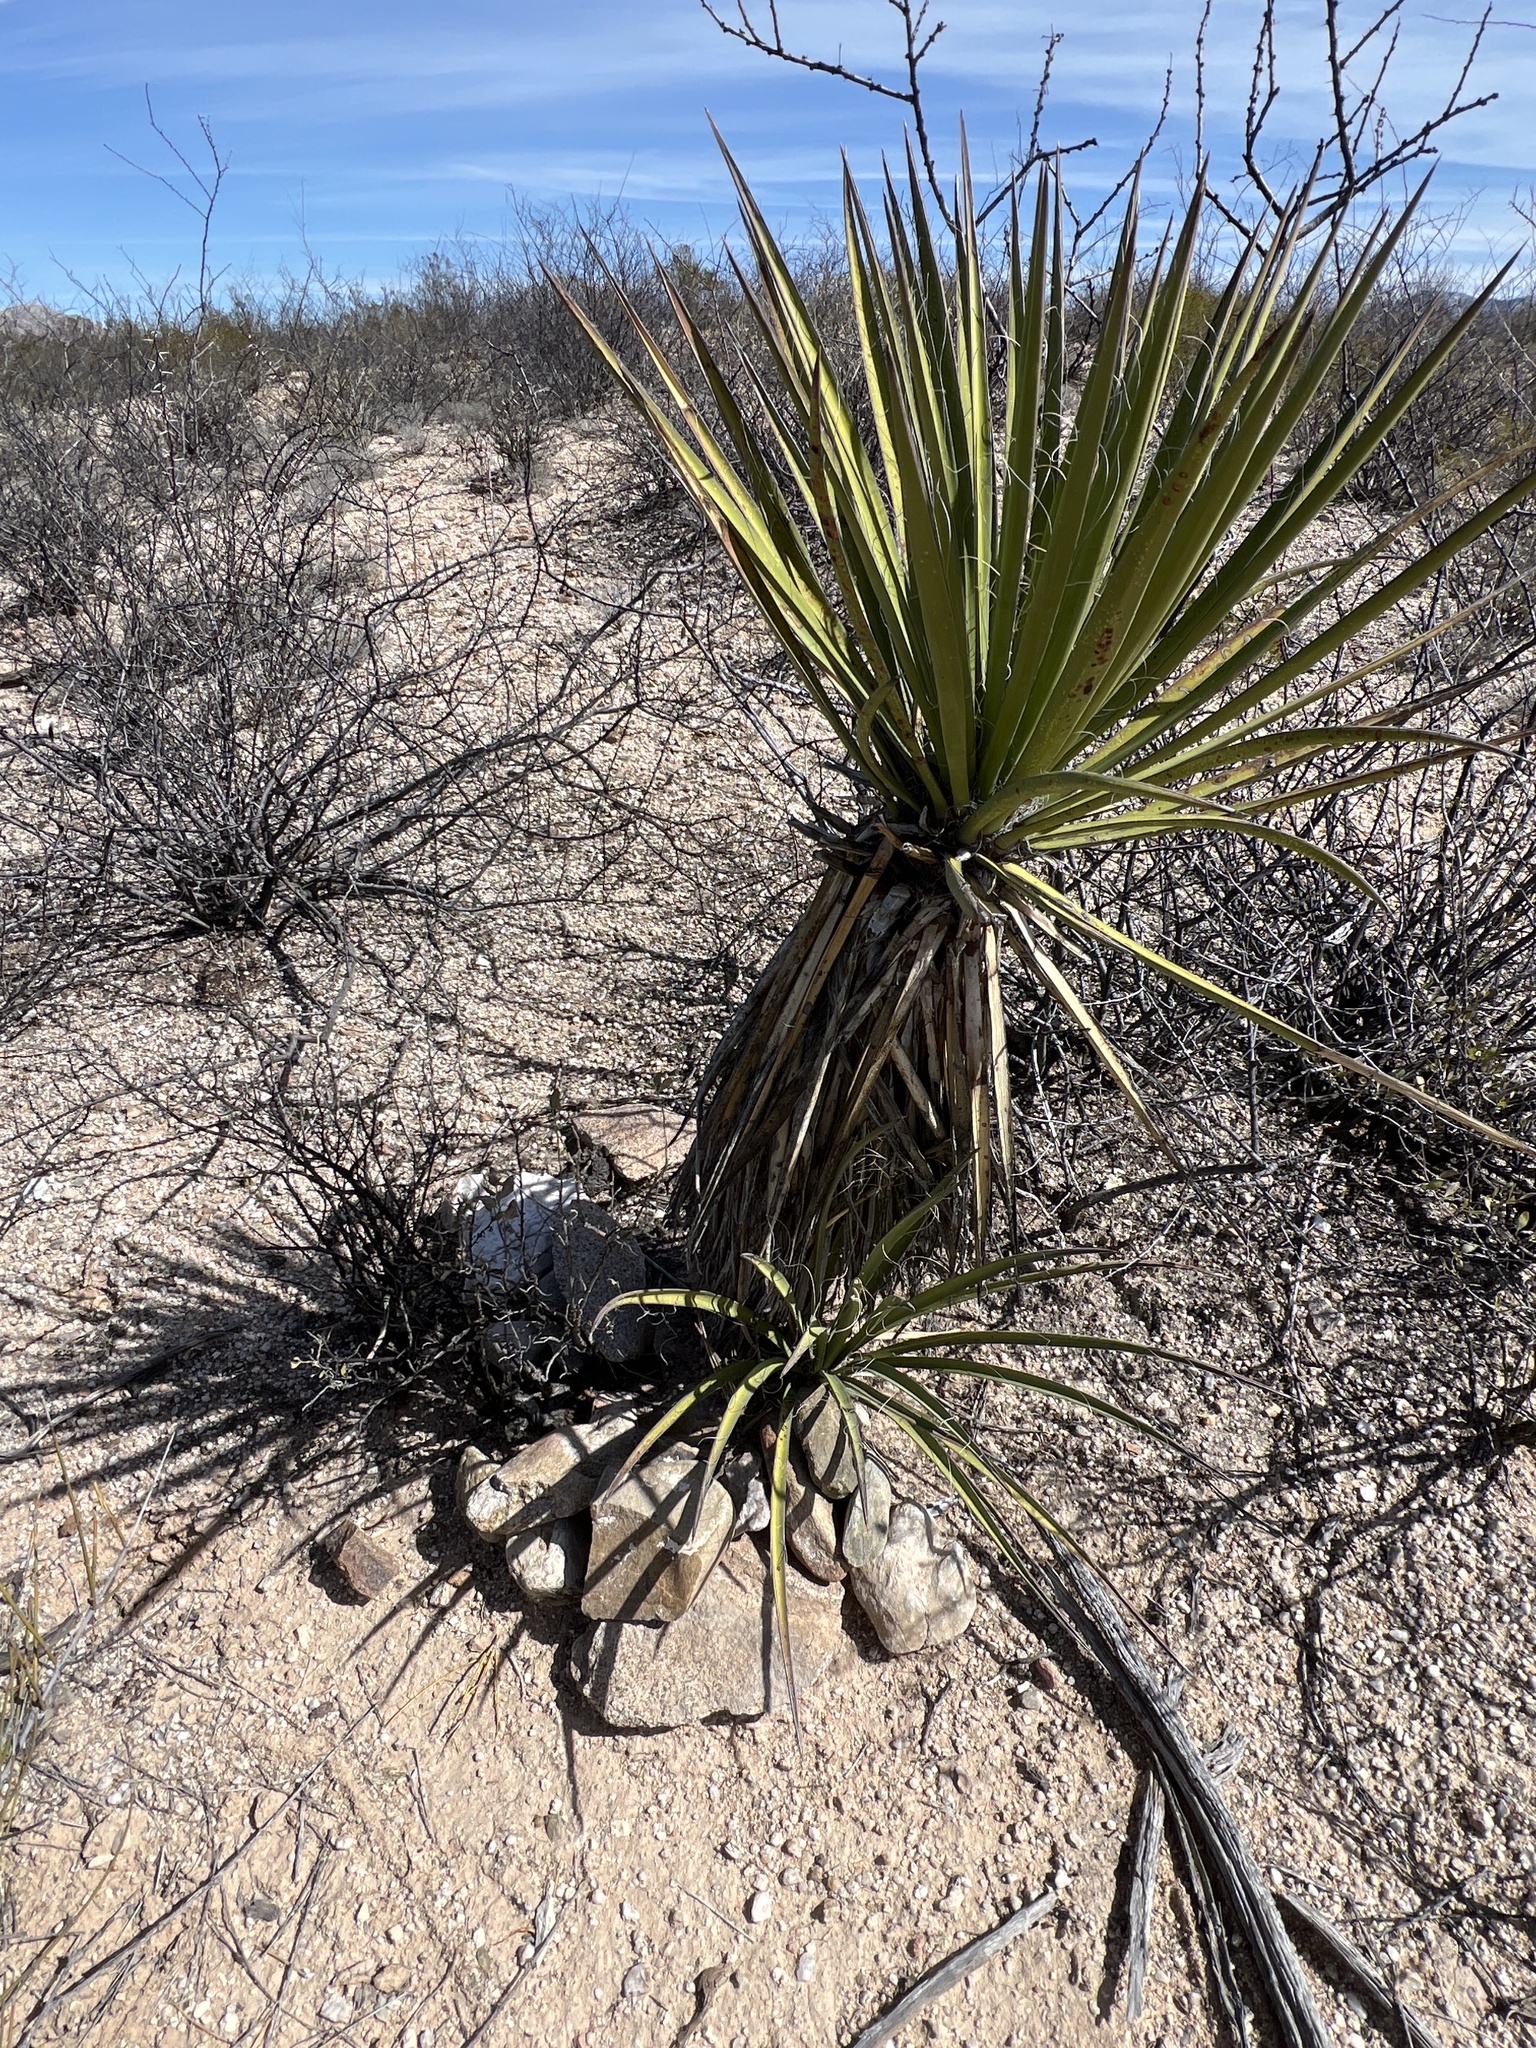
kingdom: Plantae
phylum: Tracheophyta
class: Liliopsida
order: Asparagales
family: Asparagaceae
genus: Yucca
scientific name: Yucca baccata
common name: Banana yucca
